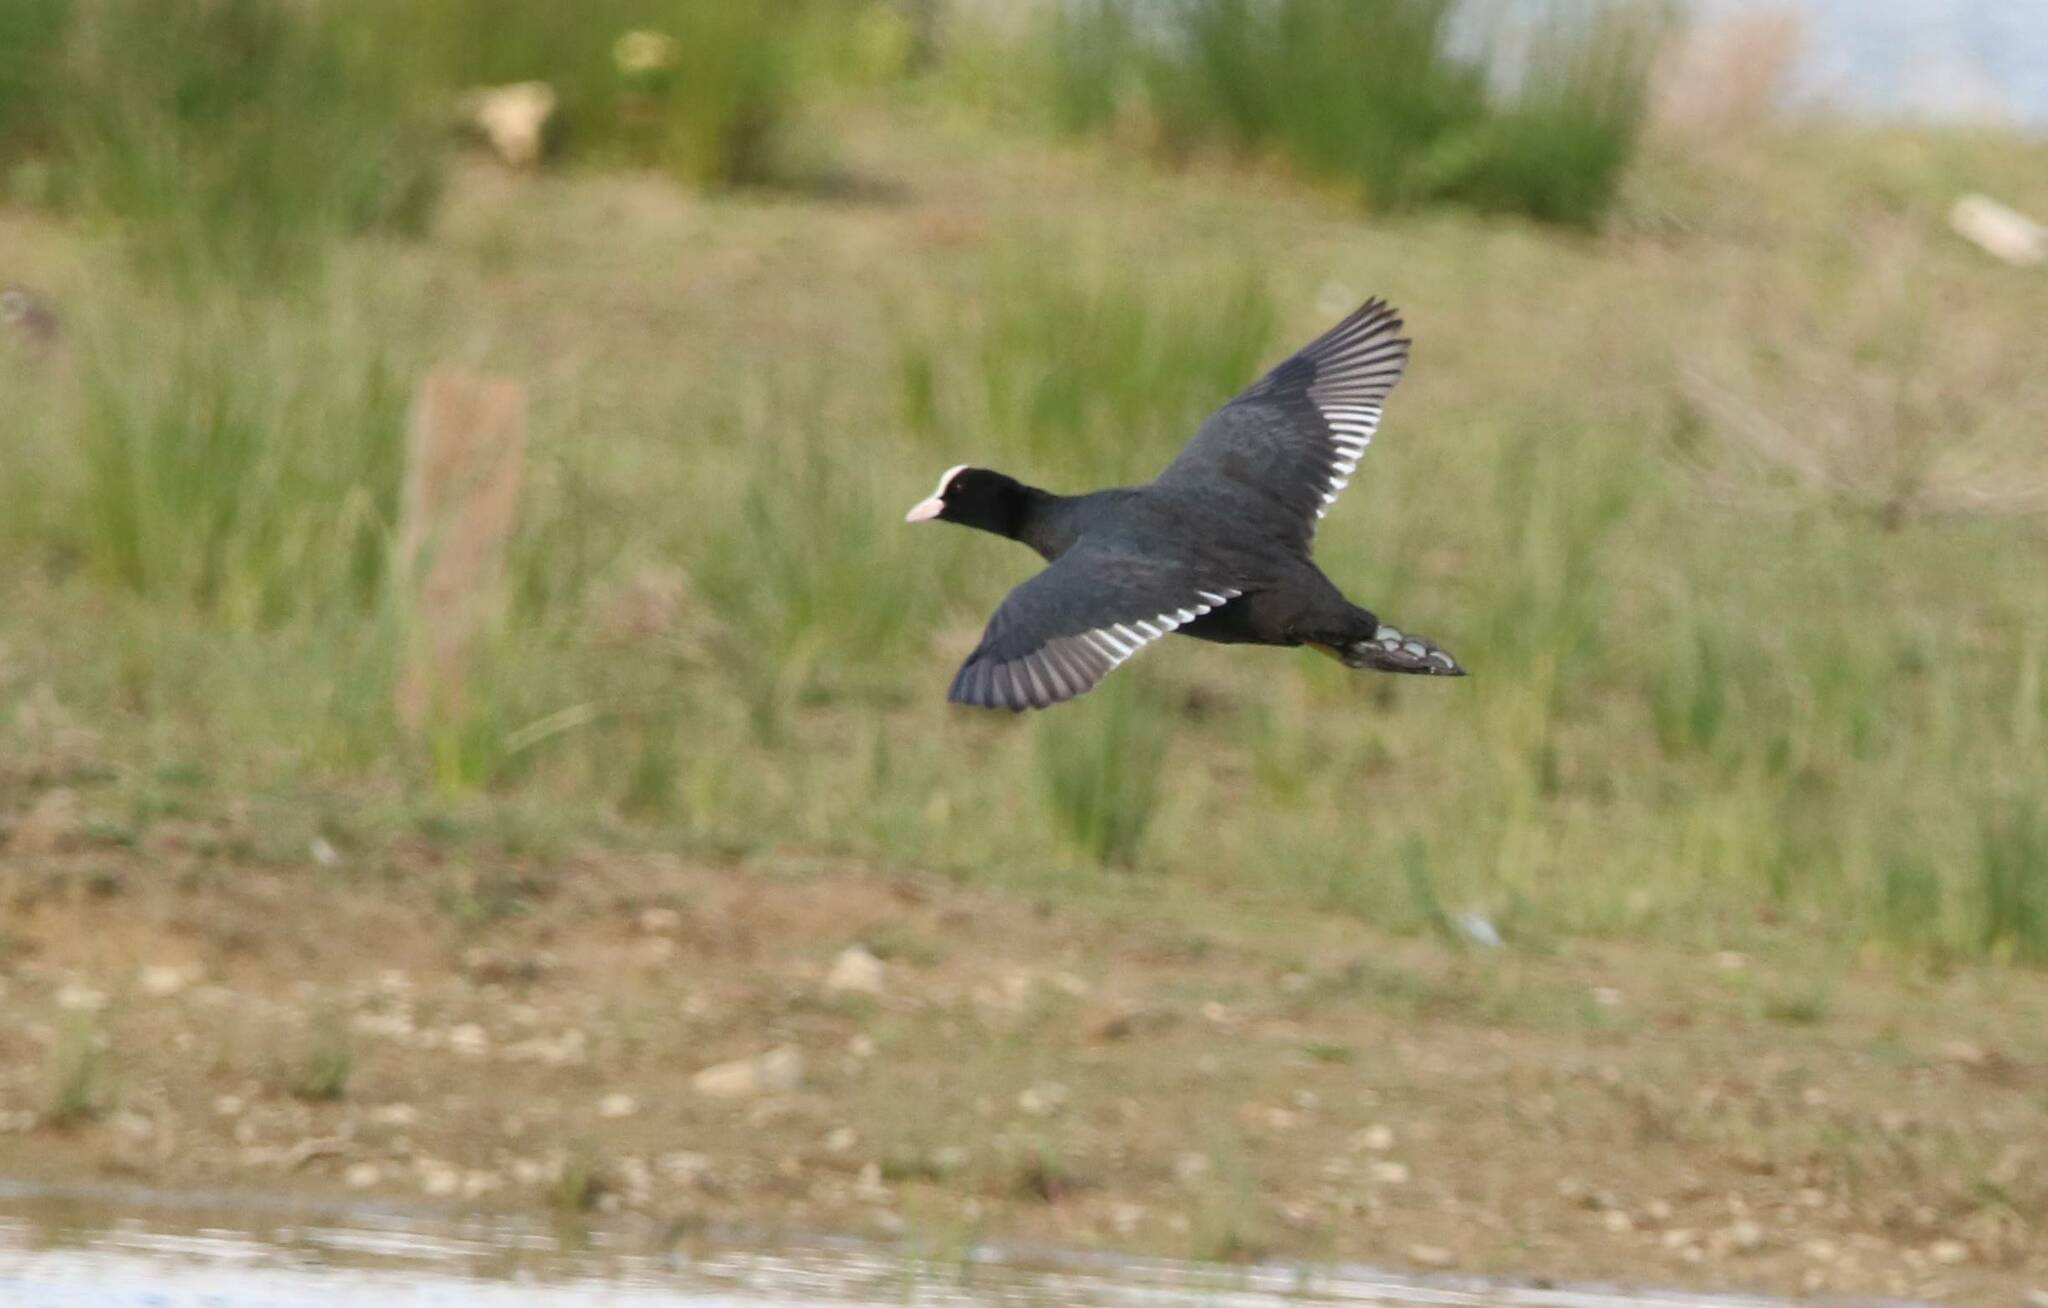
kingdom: Animalia
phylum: Chordata
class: Aves
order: Gruiformes
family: Rallidae
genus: Fulica
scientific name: Fulica atra
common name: Eurasian coot
